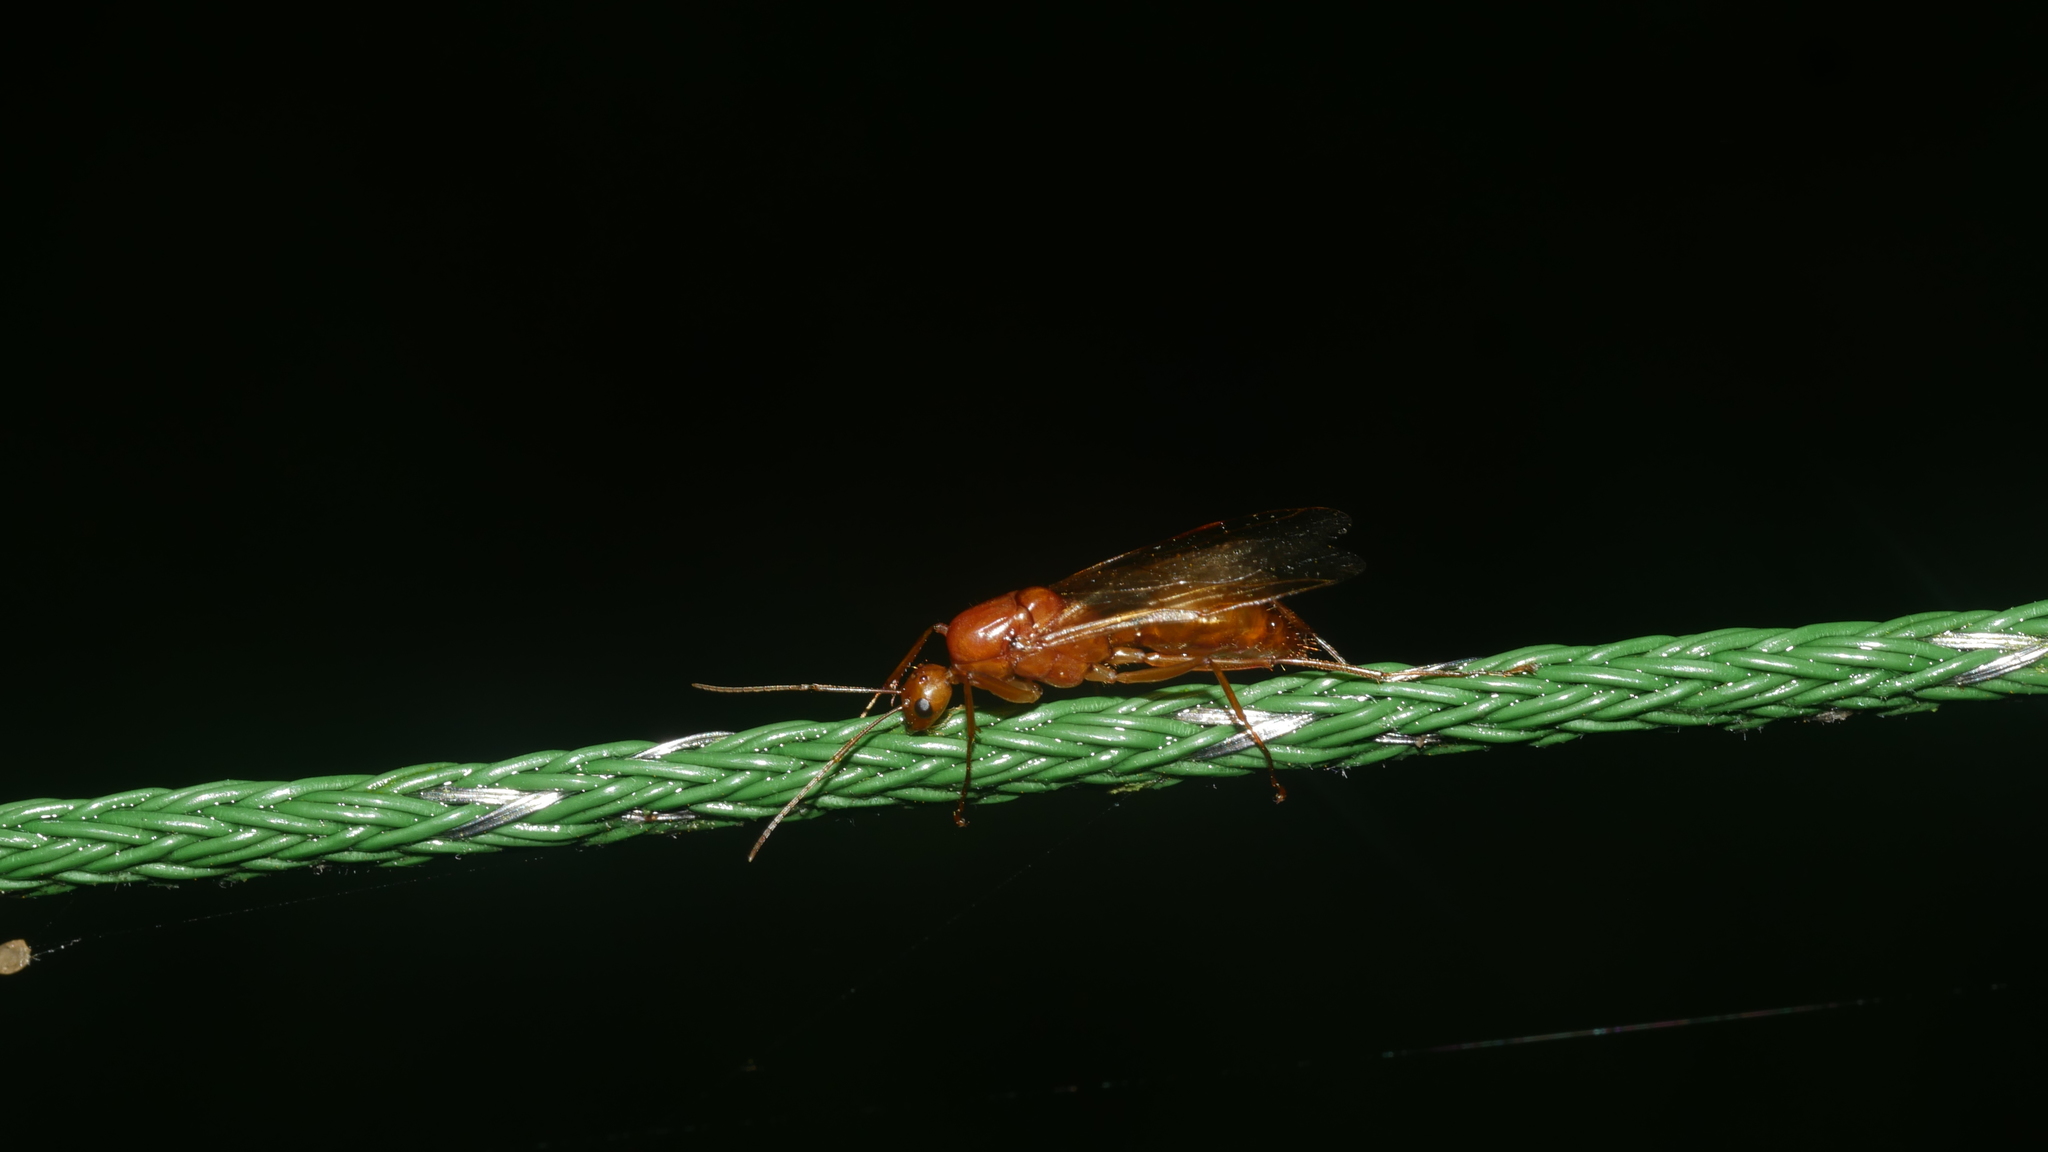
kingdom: Animalia
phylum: Arthropoda
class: Insecta
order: Hymenoptera
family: Formicidae
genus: Camponotus
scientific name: Camponotus castaneus
